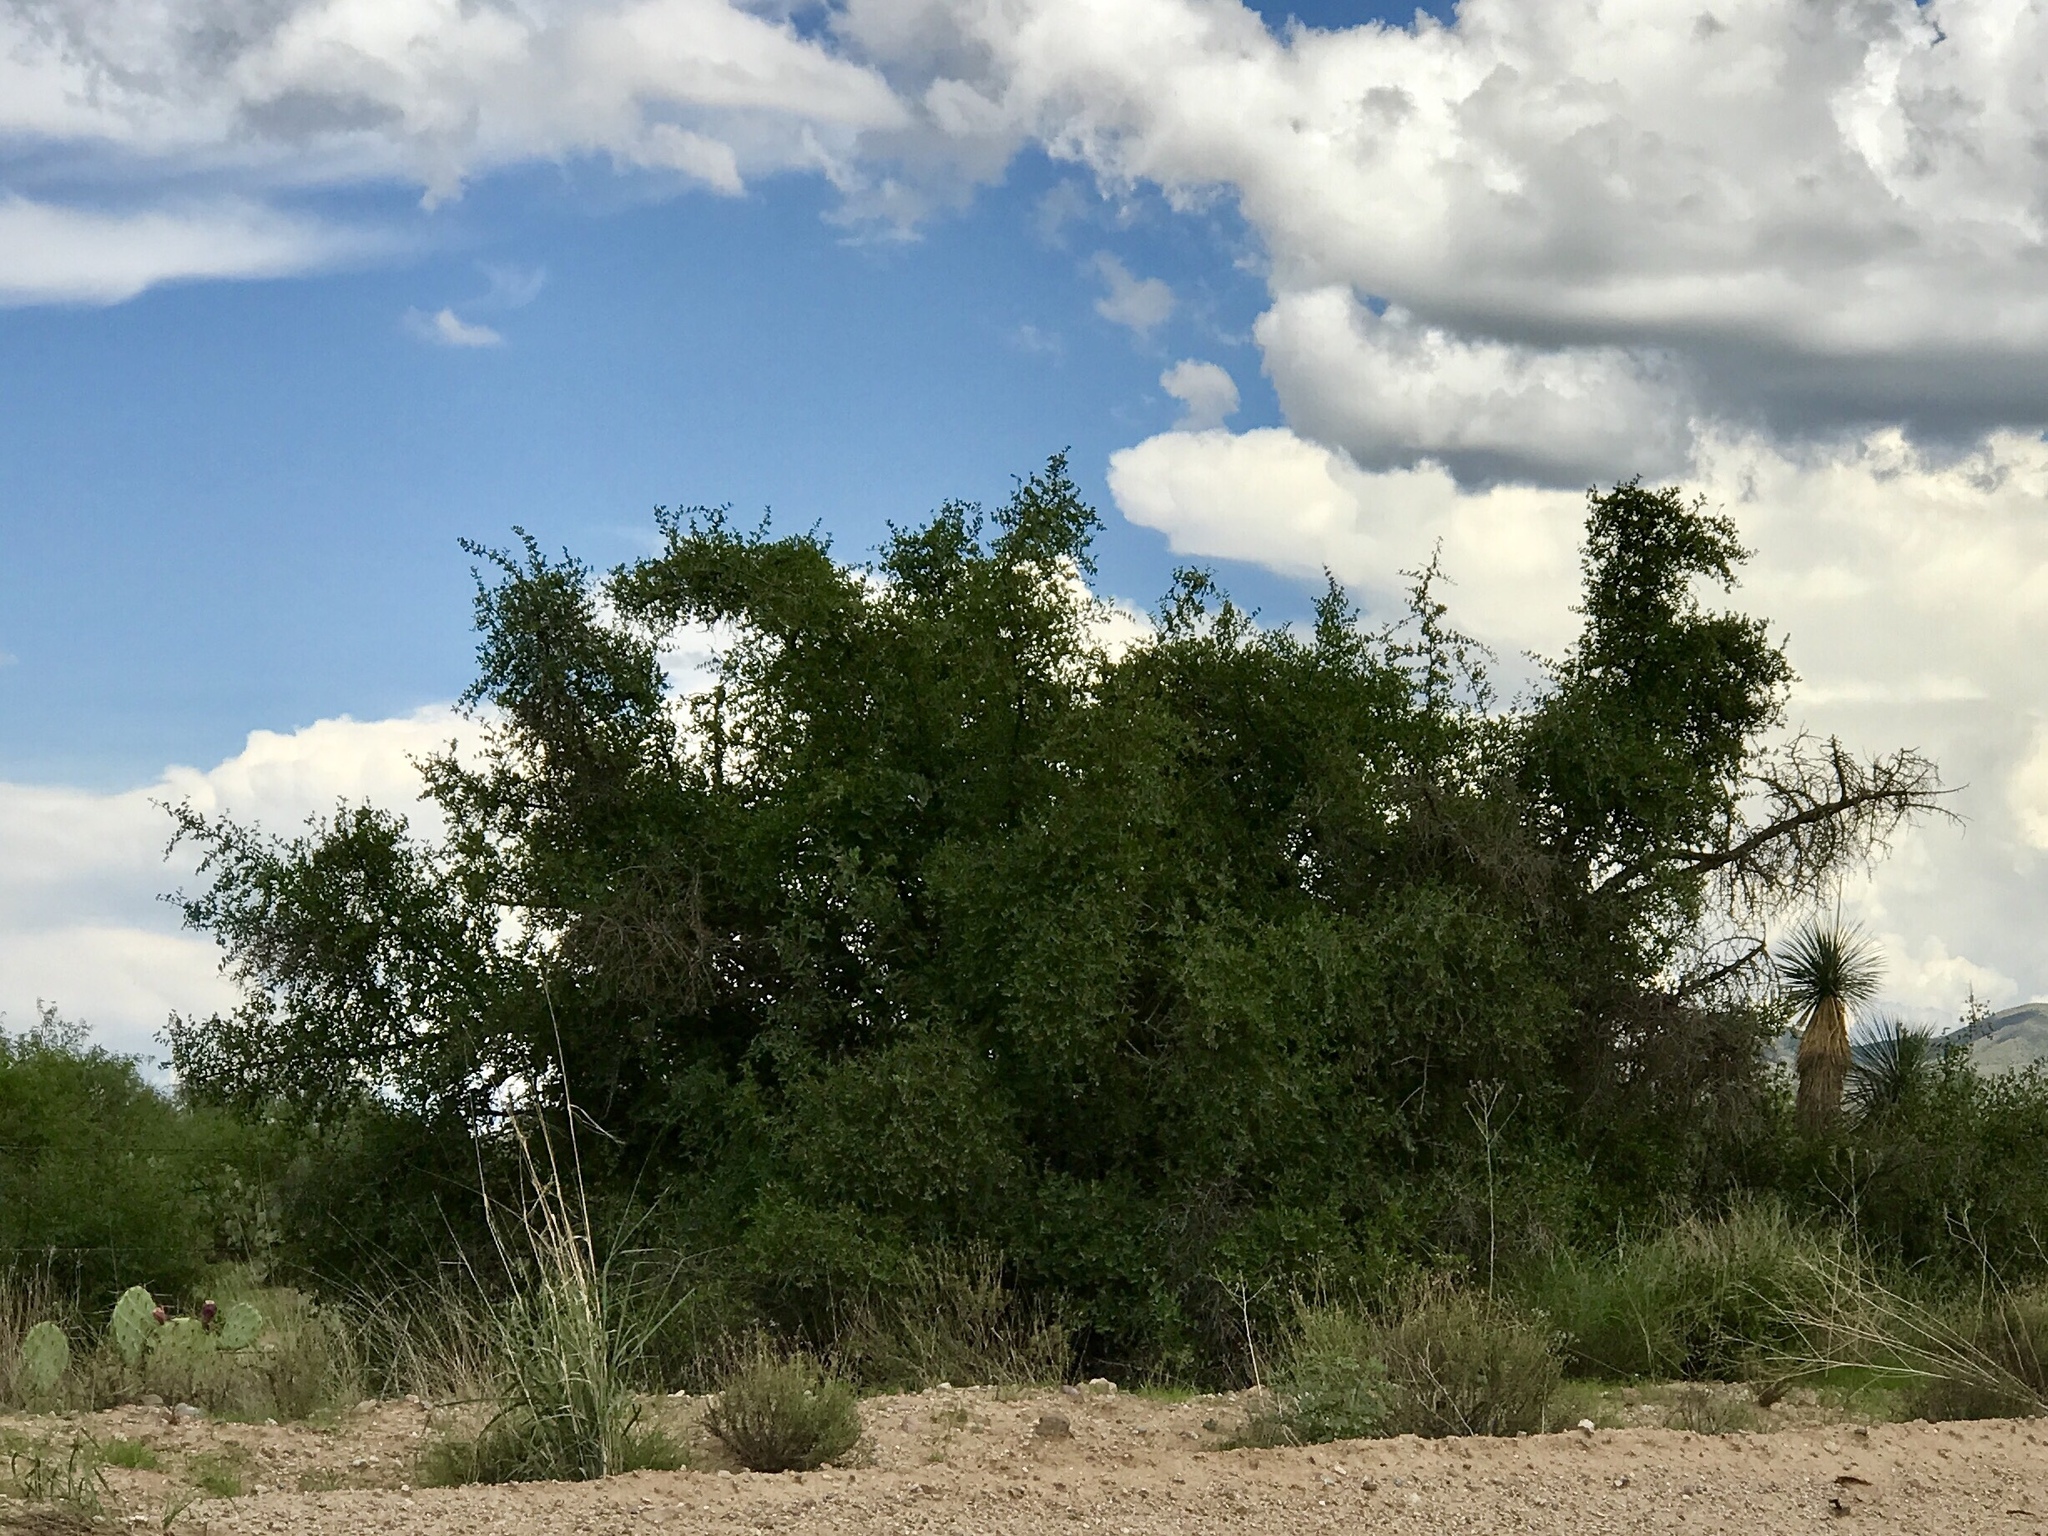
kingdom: Plantae
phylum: Tracheophyta
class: Magnoliopsida
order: Rosales
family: Cannabaceae
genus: Celtis
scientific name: Celtis pallida
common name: Desert hackberry
